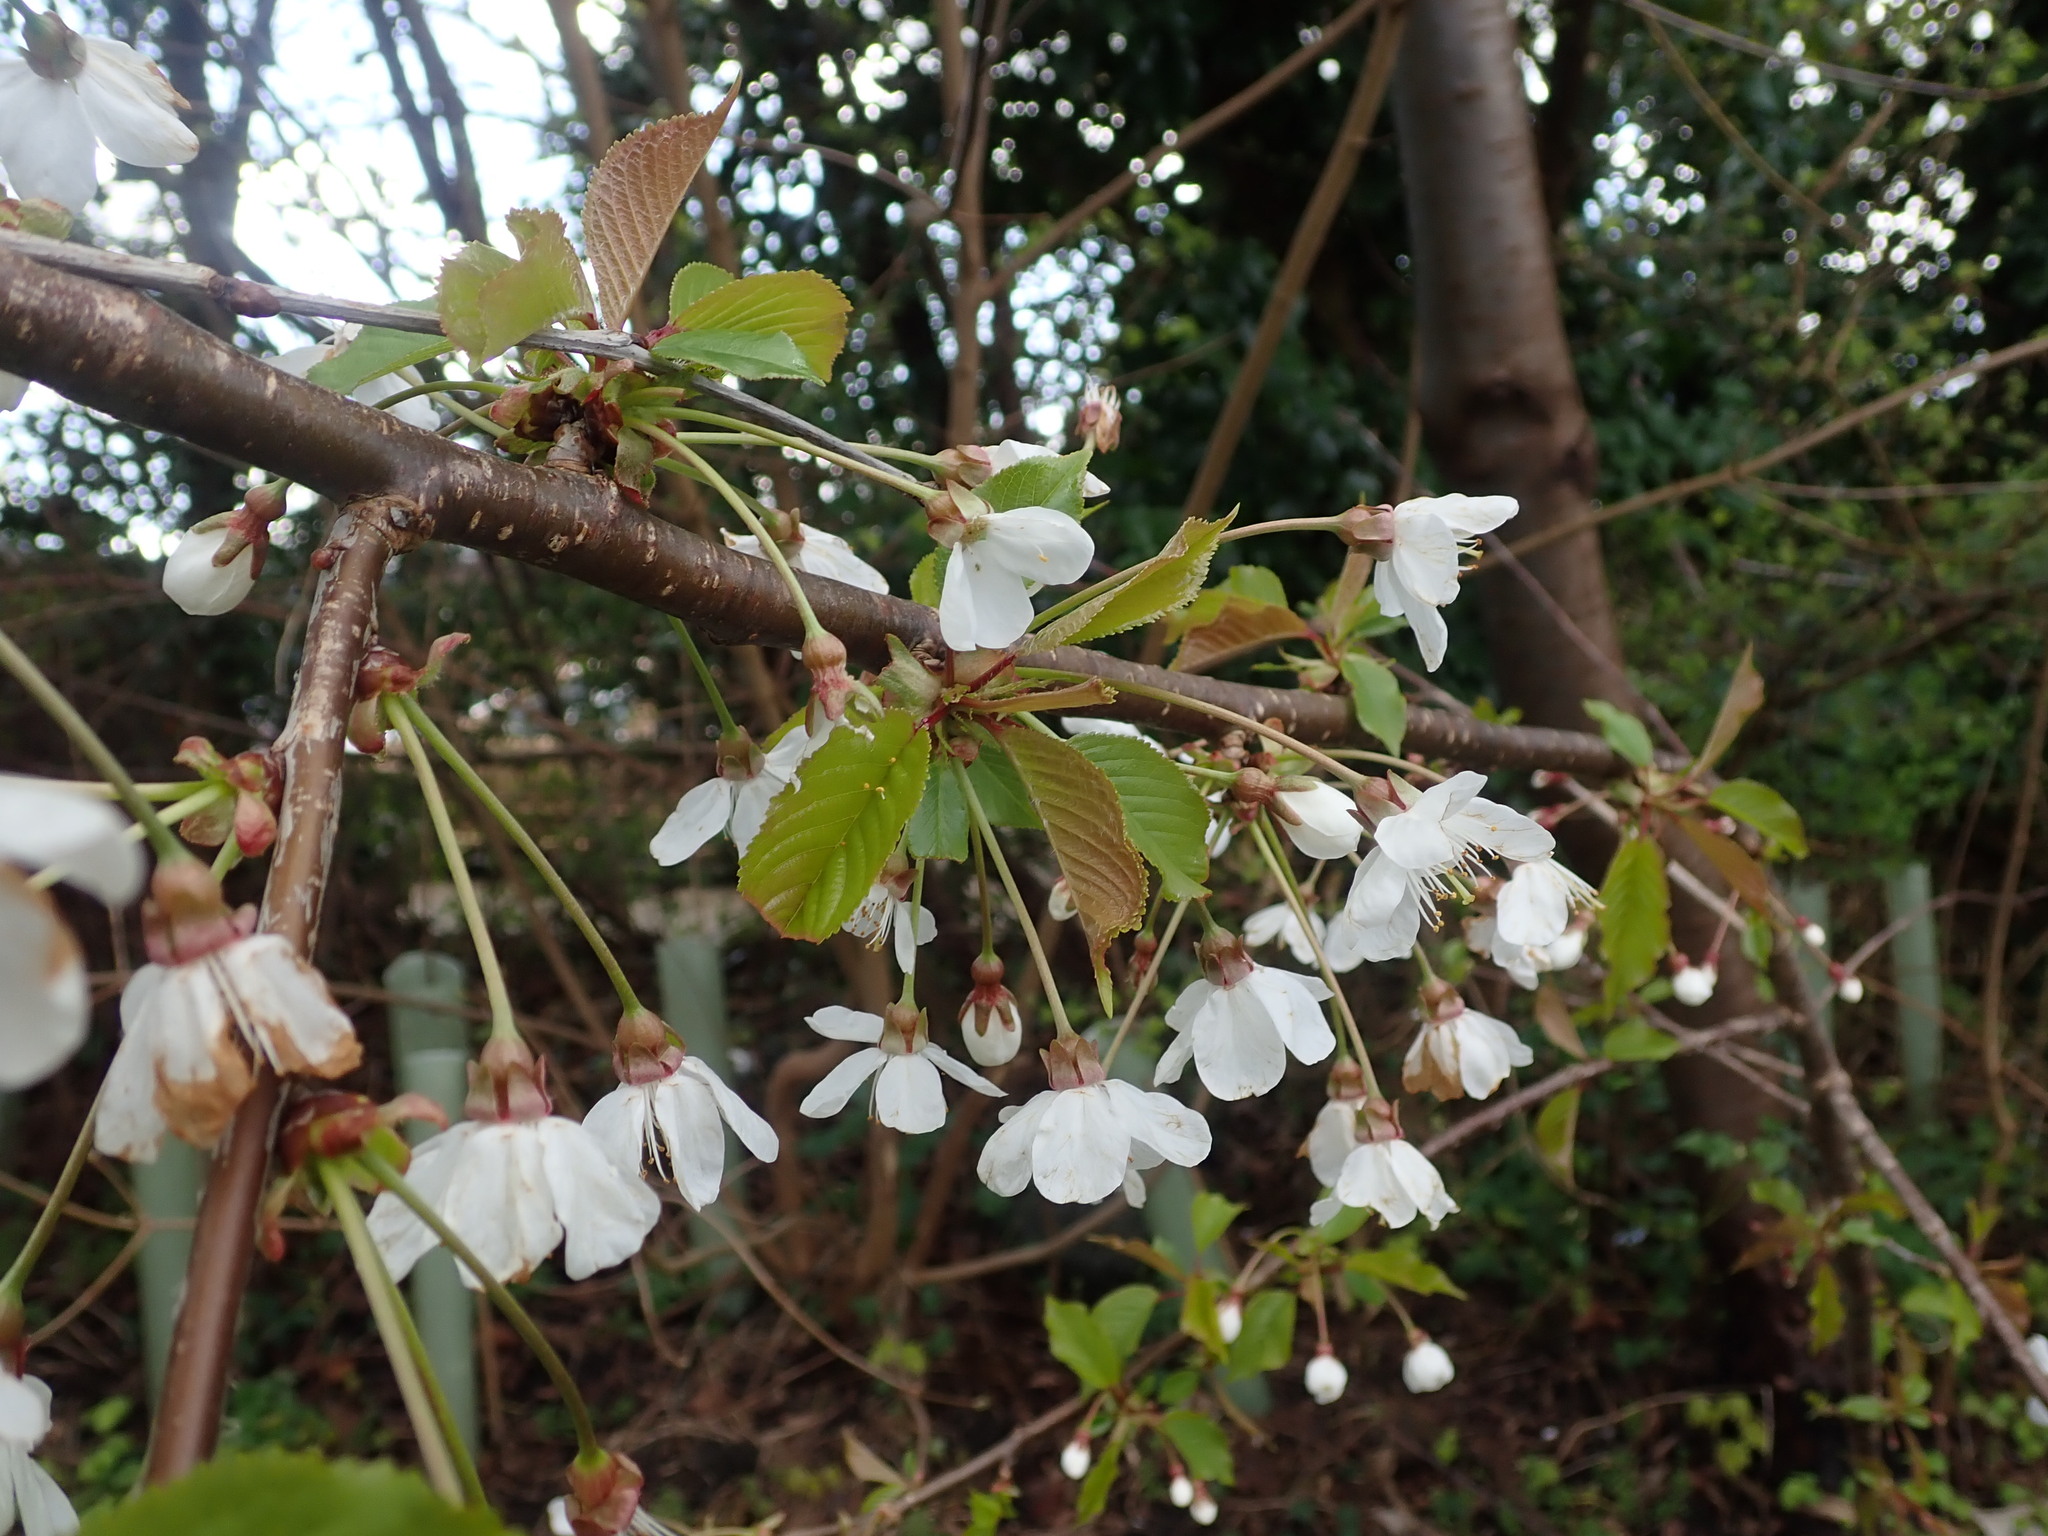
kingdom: Plantae
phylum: Tracheophyta
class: Magnoliopsida
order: Rosales
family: Rosaceae
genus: Prunus
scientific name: Prunus avium
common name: Sweet cherry
